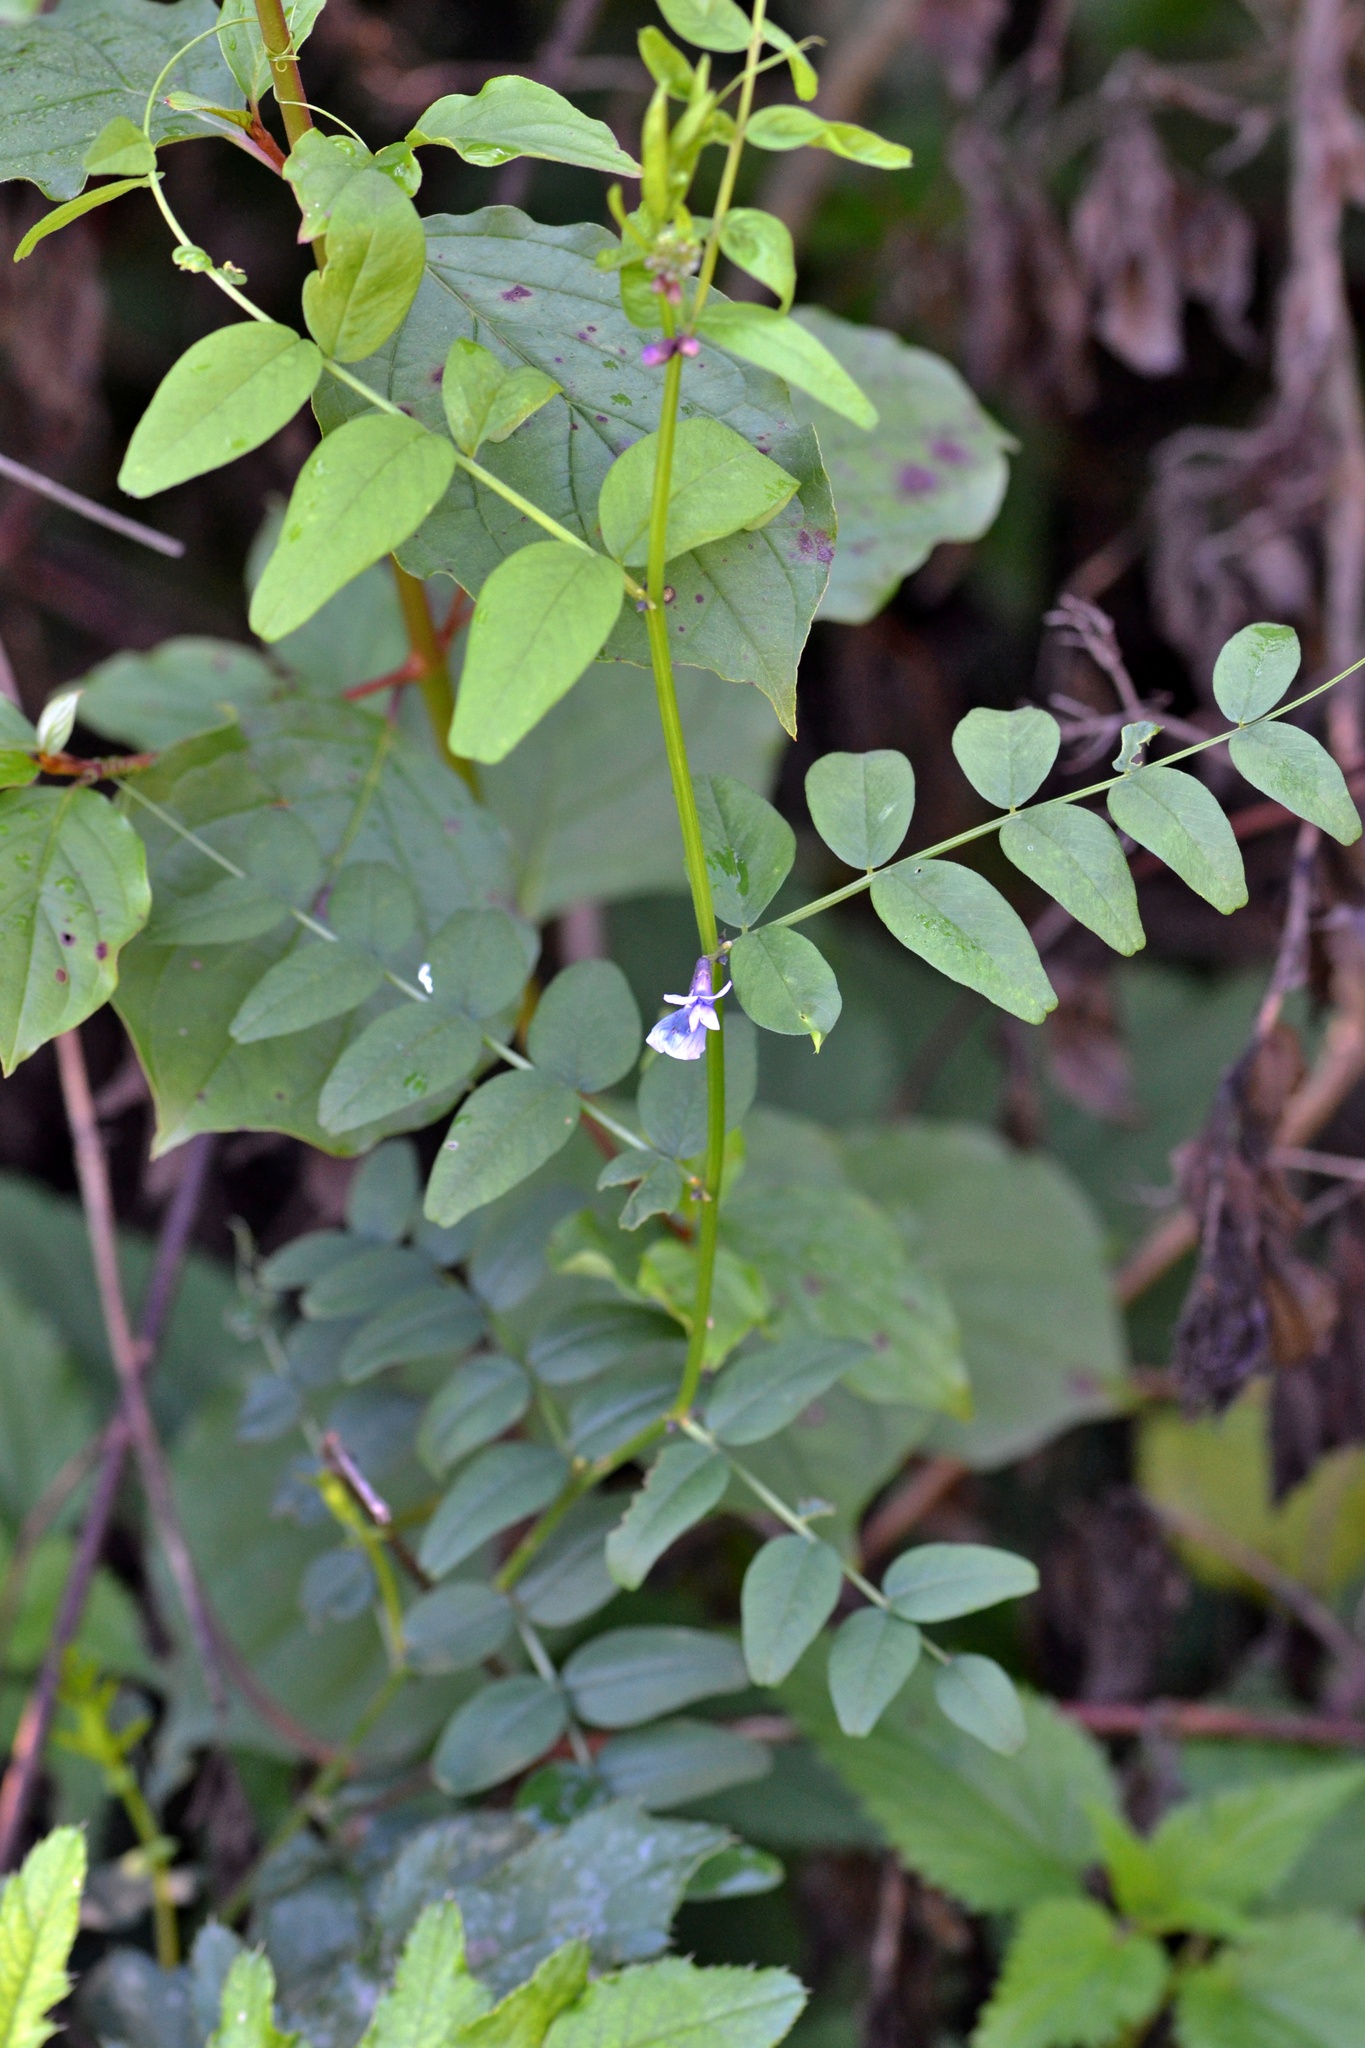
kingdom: Plantae
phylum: Tracheophyta
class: Magnoliopsida
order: Fabales
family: Fabaceae
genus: Vicia
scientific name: Vicia sepium
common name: Bush vetch
